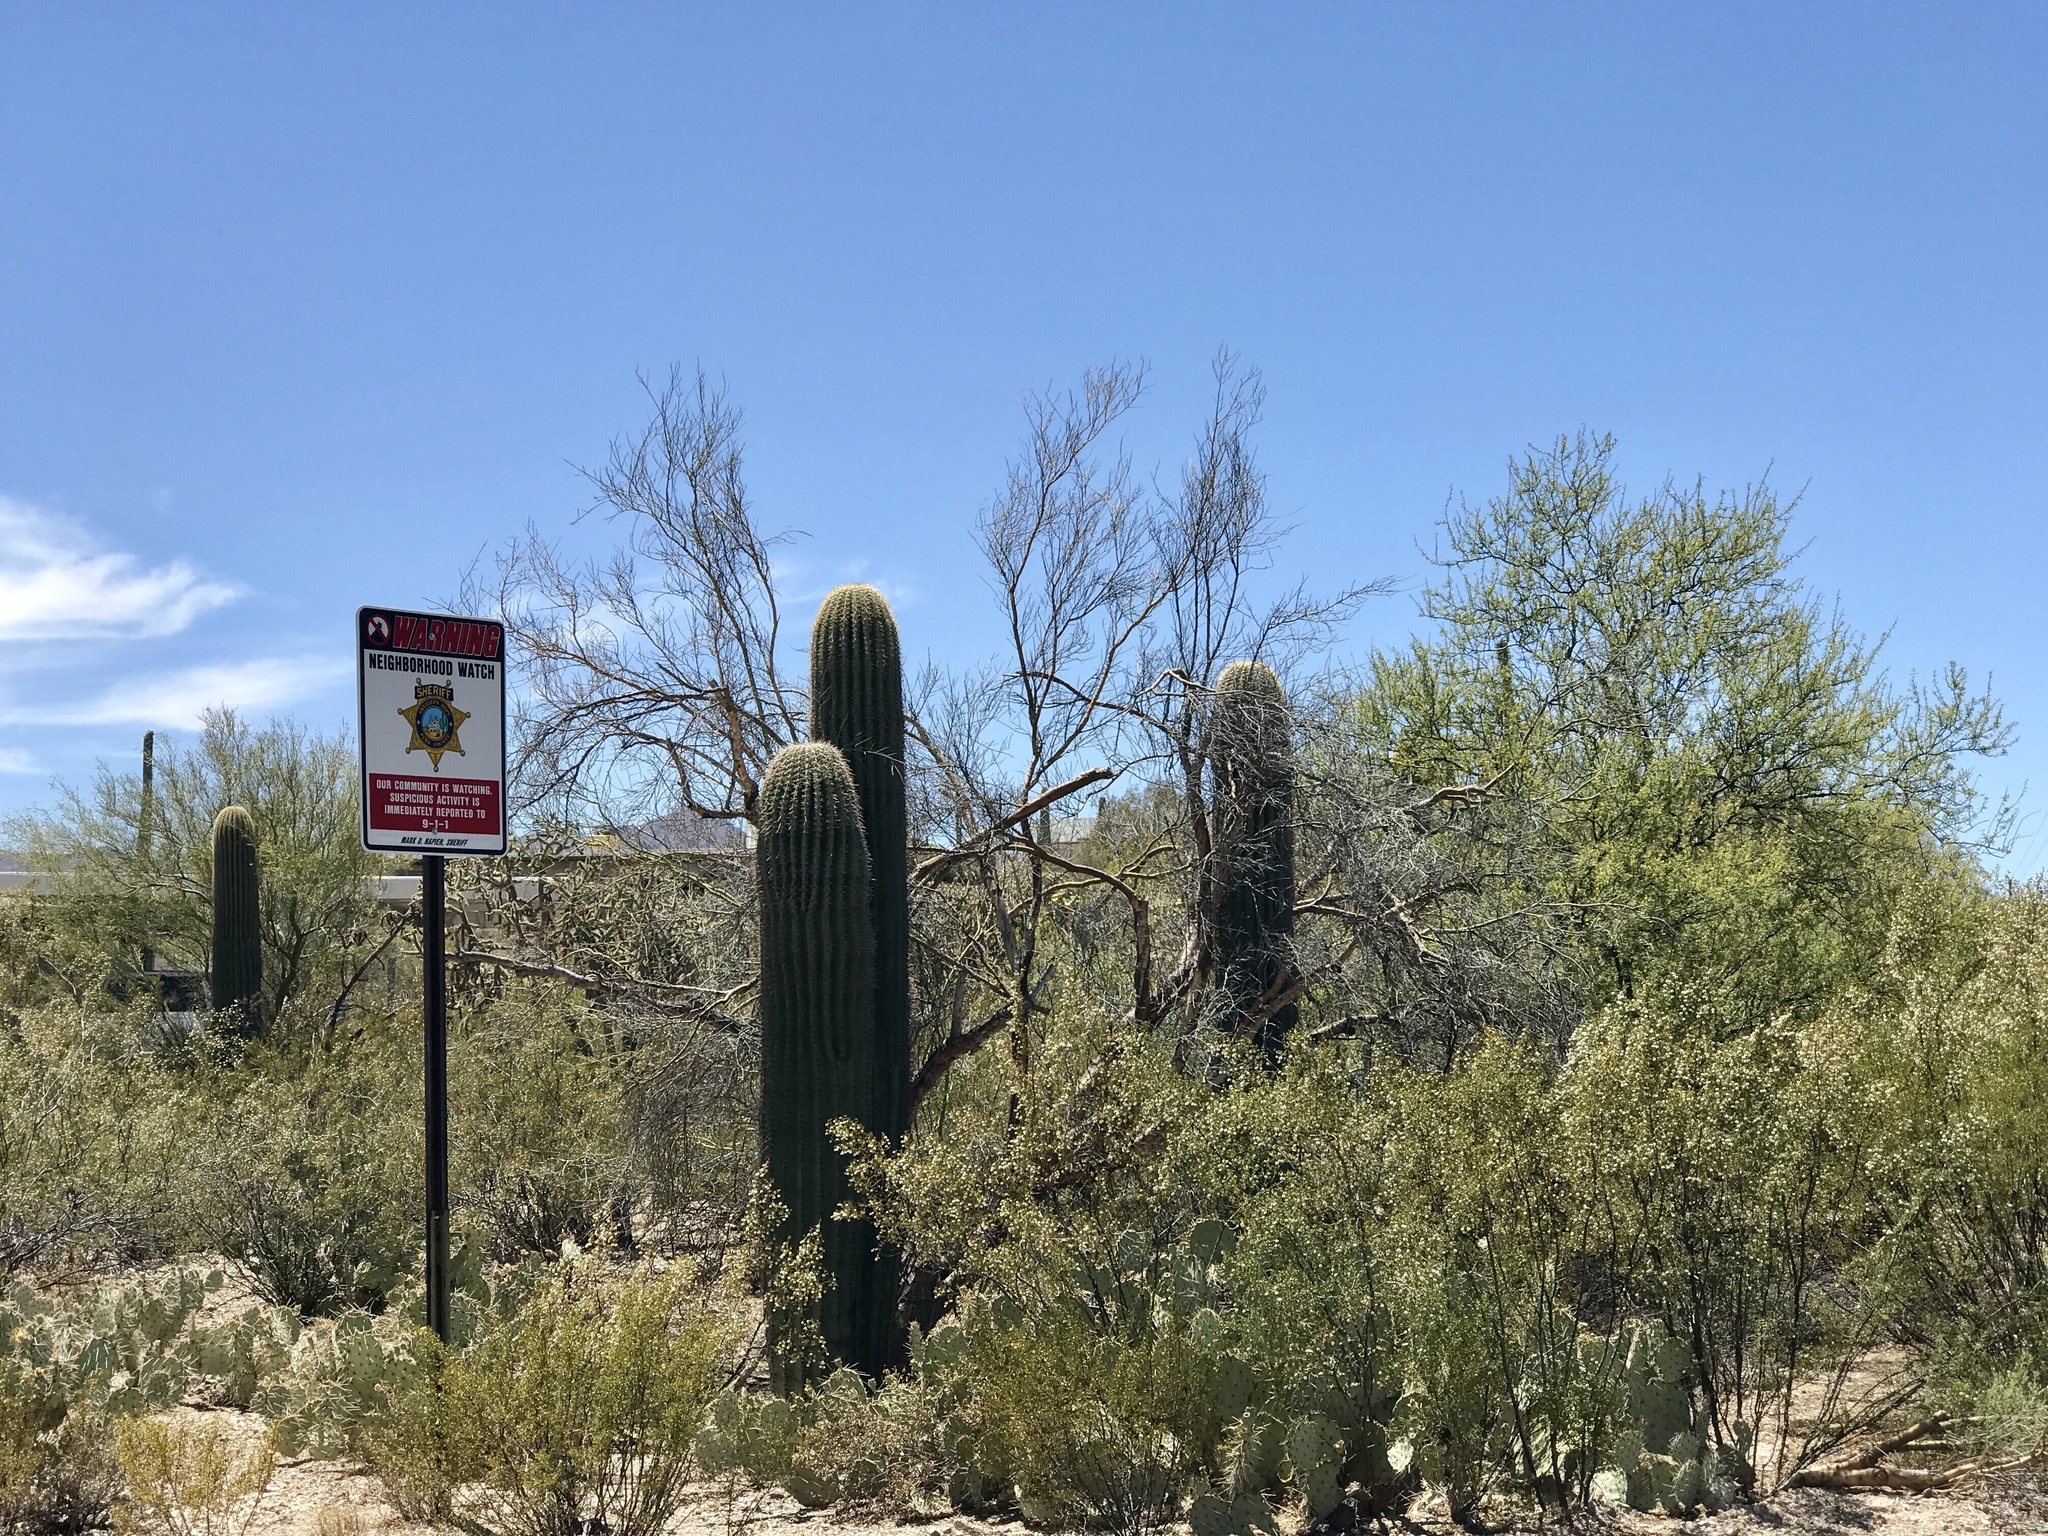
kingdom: Plantae
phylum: Tracheophyta
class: Magnoliopsida
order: Caryophyllales
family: Cactaceae
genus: Carnegiea
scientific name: Carnegiea gigantea
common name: Saguaro
